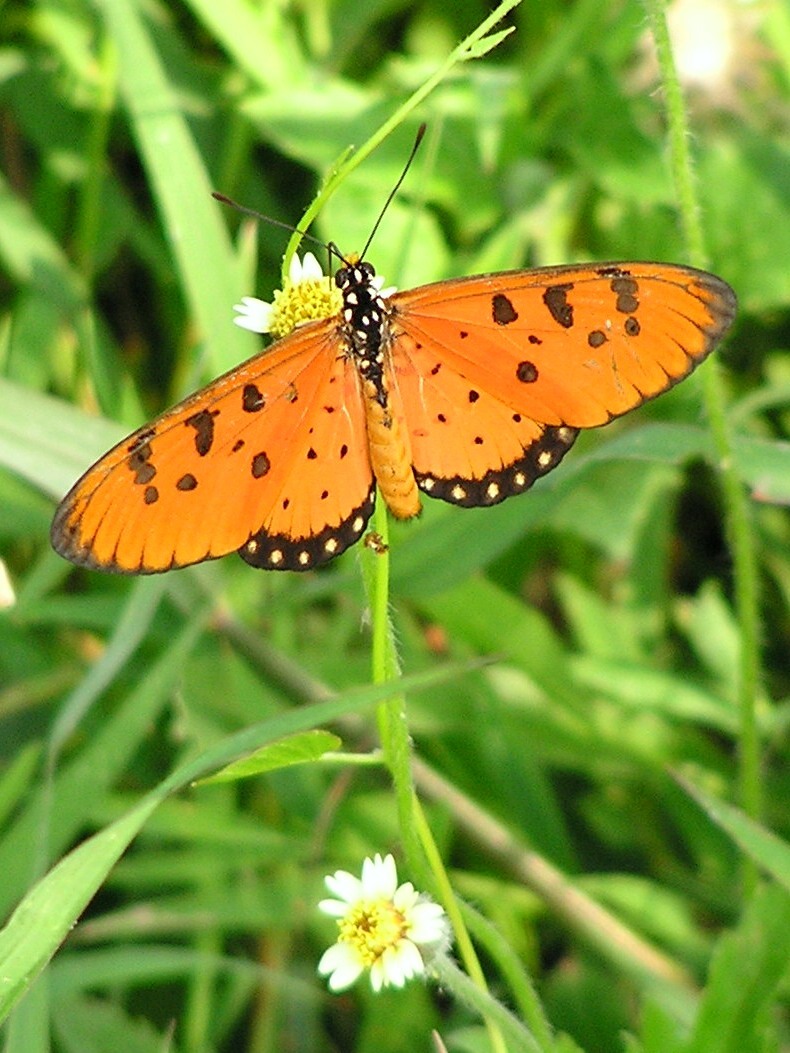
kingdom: Animalia
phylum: Arthropoda
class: Insecta
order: Lepidoptera
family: Nymphalidae
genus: Acraea
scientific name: Acraea terpsicore
